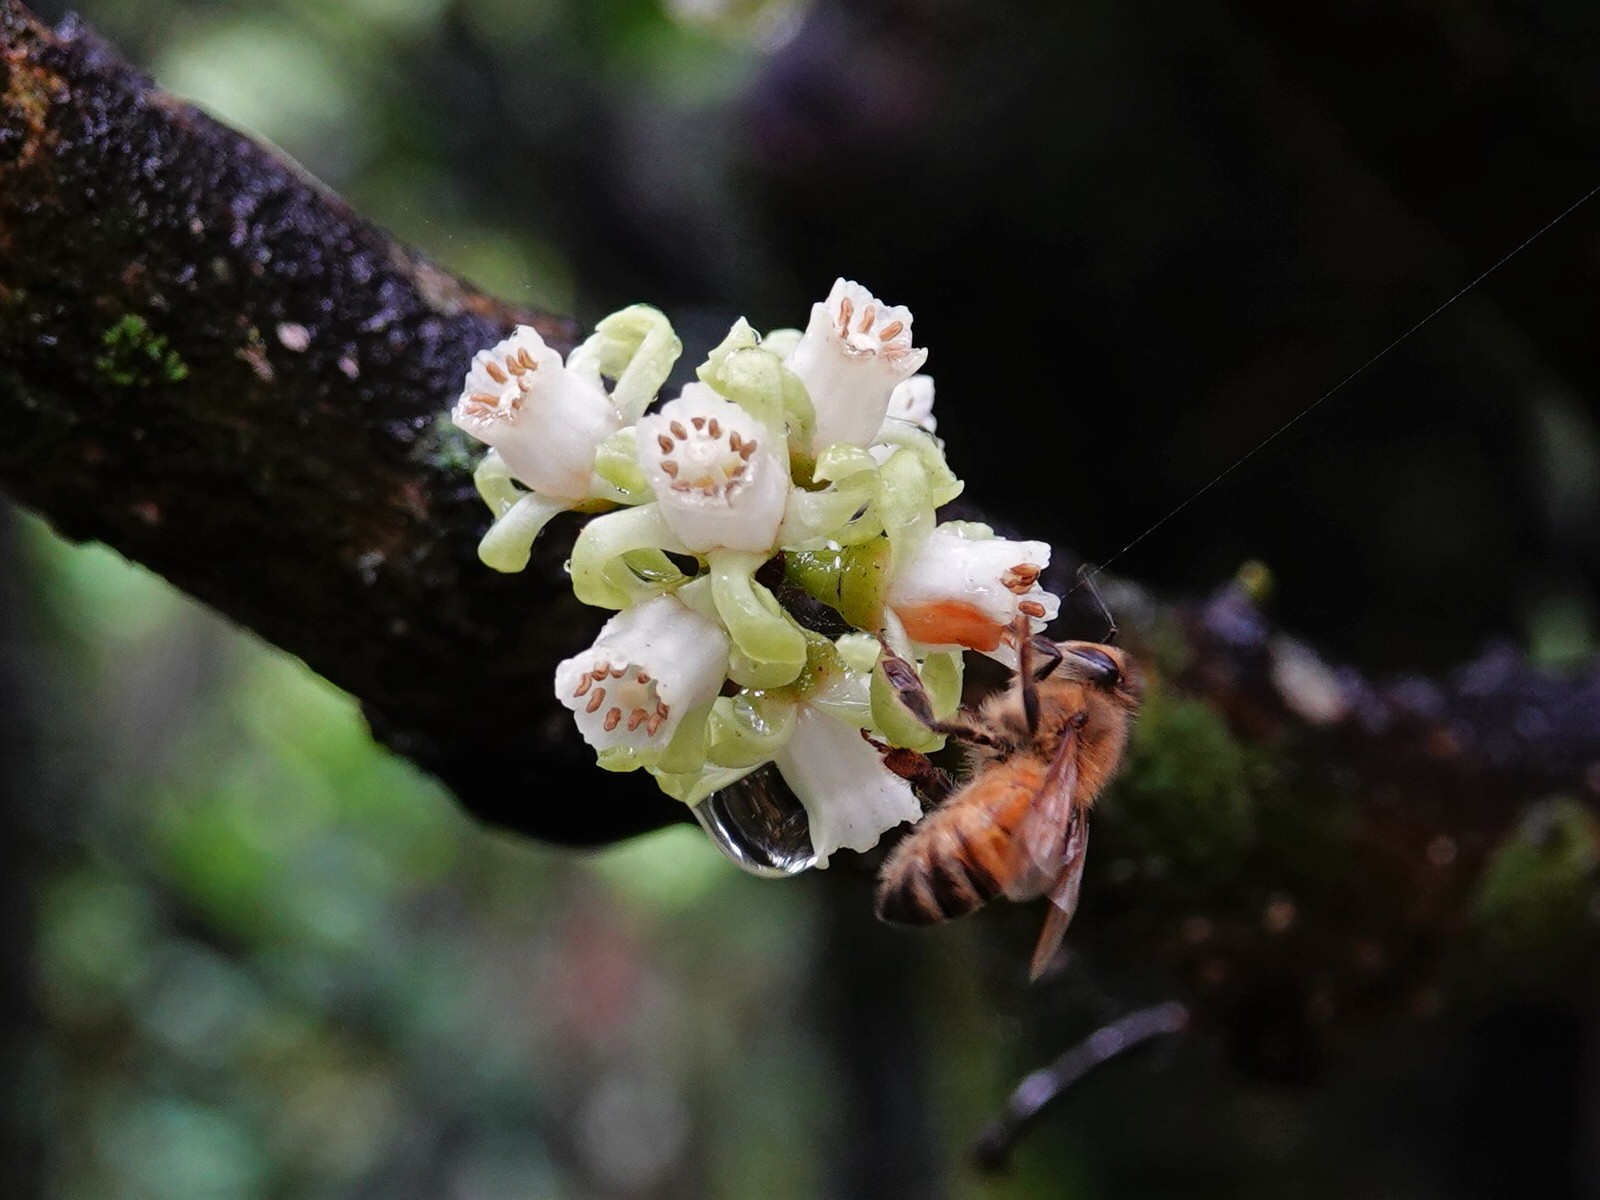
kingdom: Animalia
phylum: Arthropoda
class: Insecta
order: Hymenoptera
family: Apidae
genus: Apis
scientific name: Apis mellifera
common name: Honey bee
